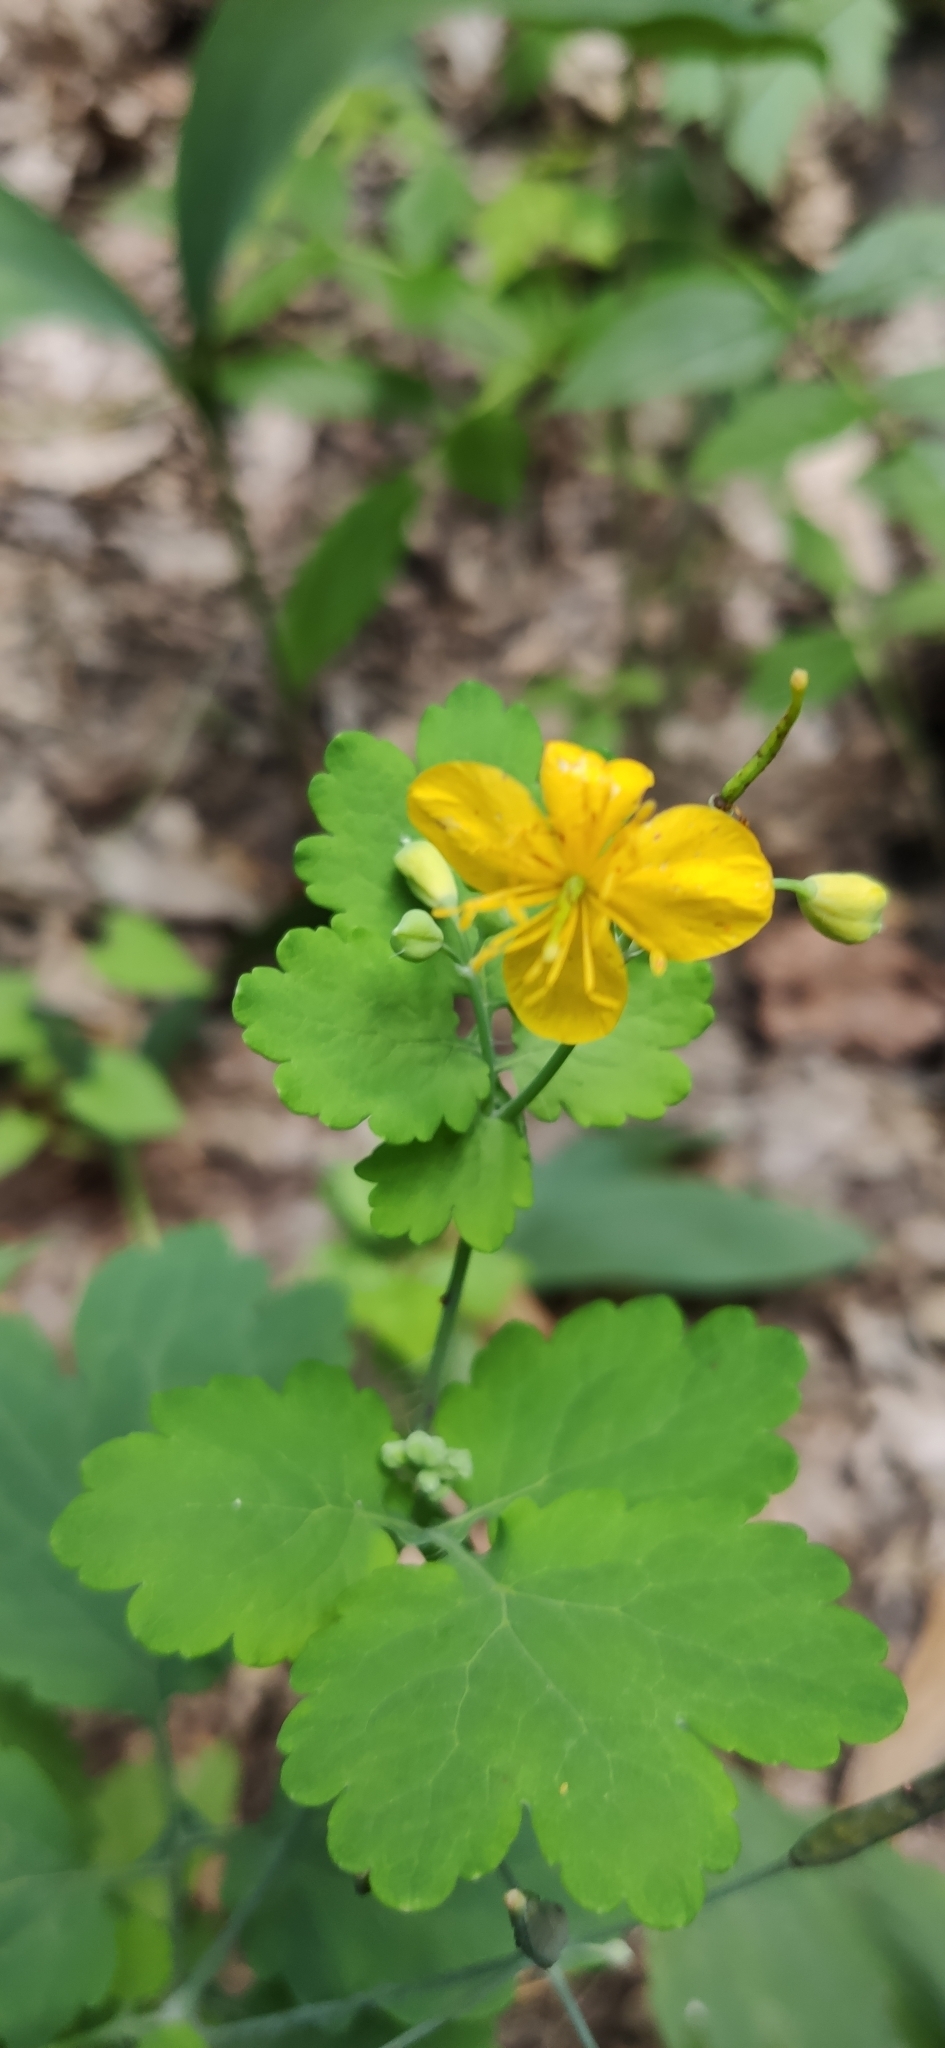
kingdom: Plantae
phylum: Tracheophyta
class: Magnoliopsida
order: Ranunculales
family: Papaveraceae
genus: Chelidonium
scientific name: Chelidonium majus
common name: Greater celandine
